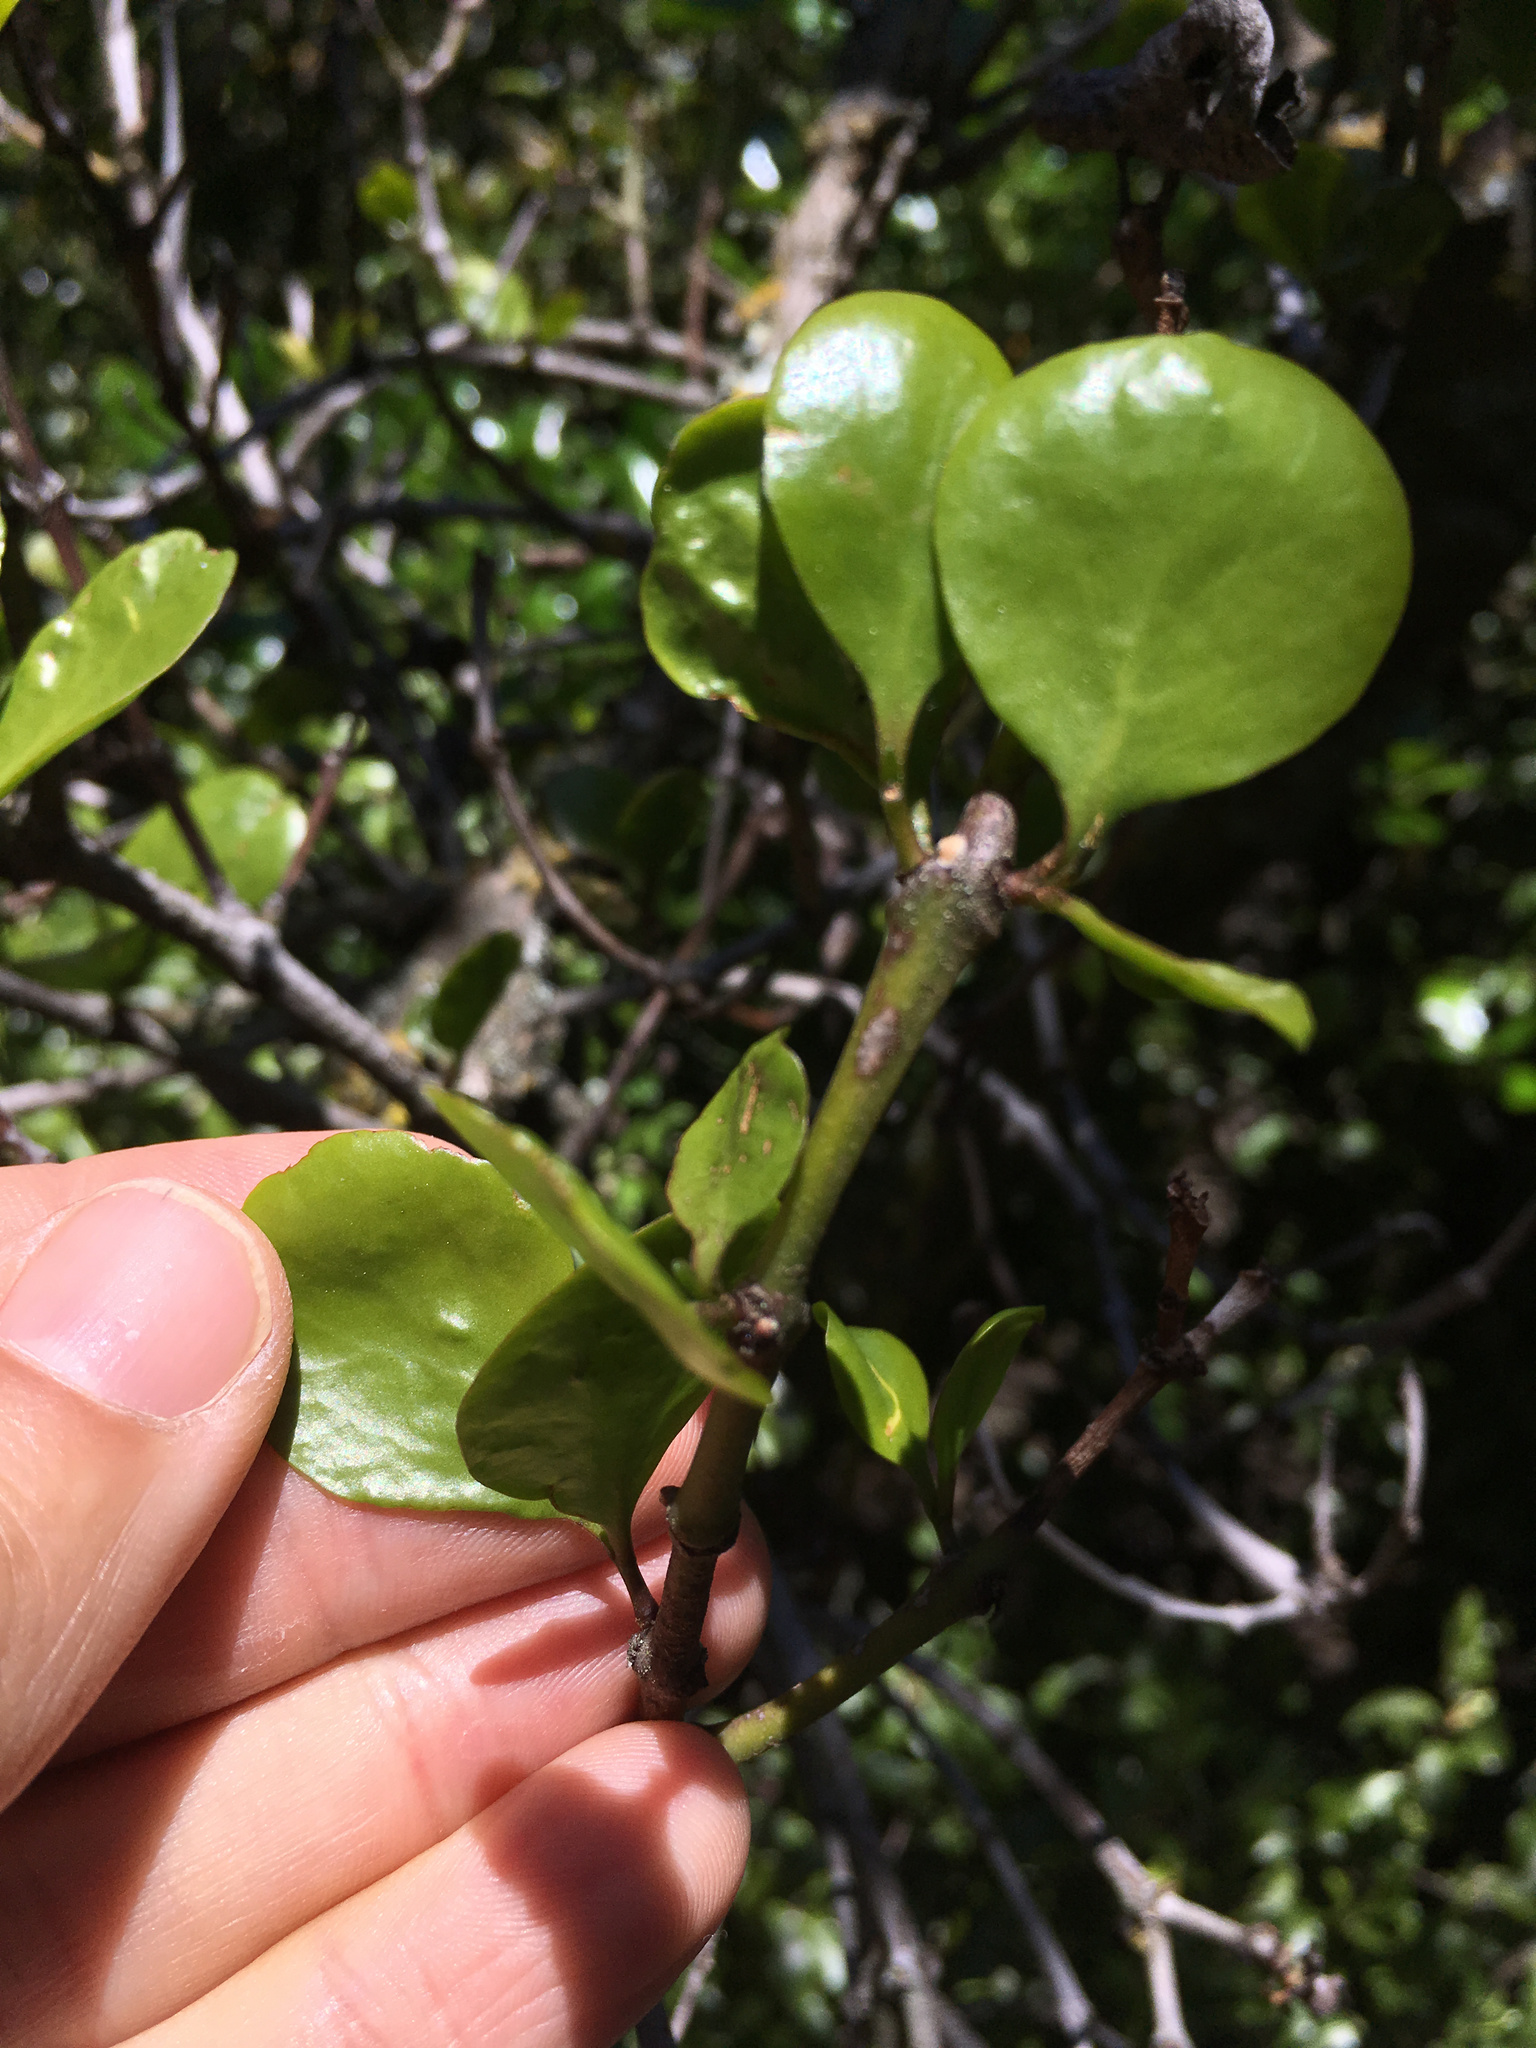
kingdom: Plantae
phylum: Tracheophyta
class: Magnoliopsida
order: Santalales
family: Loranthaceae
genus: Ileostylus
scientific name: Ileostylus micranthus
